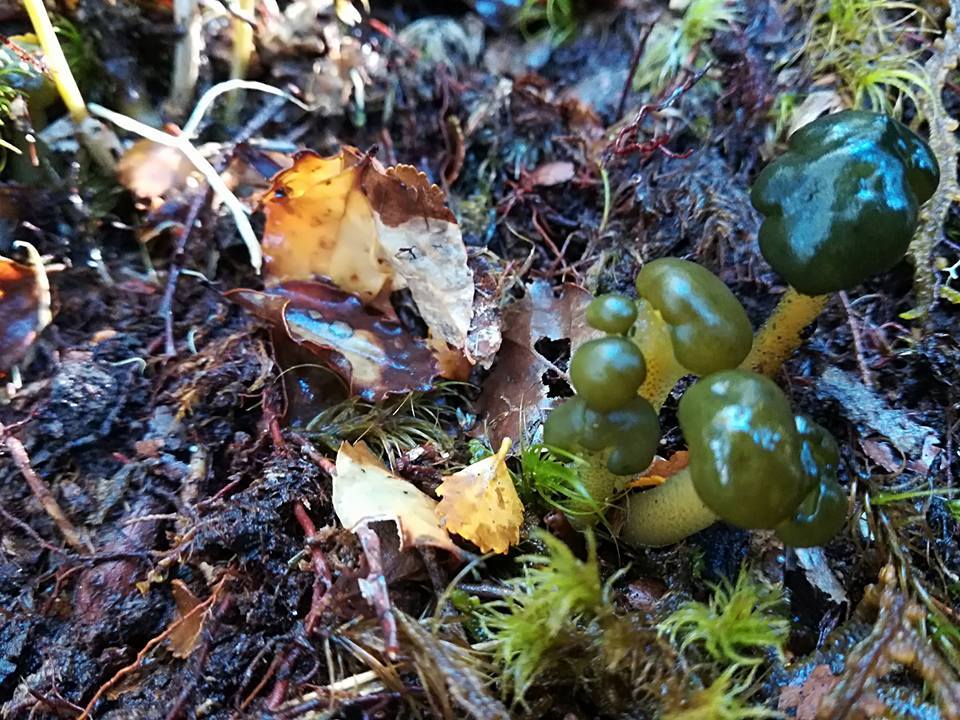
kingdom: Fungi
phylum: Ascomycota
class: Leotiomycetes
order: Leotiales
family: Leotiaceae
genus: Leotia
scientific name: Leotia lubrica
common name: Jellybaby
